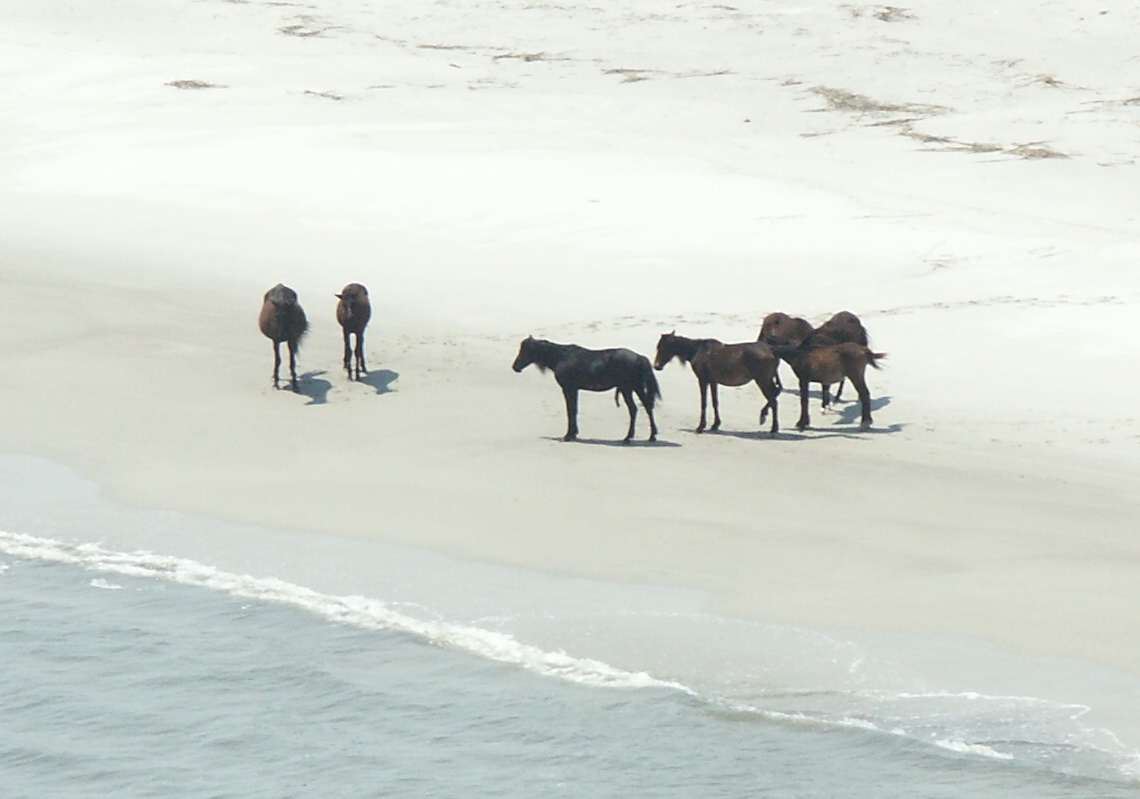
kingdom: Animalia
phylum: Chordata
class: Mammalia
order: Perissodactyla
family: Equidae
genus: Equus
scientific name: Equus caballus
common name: Horse
